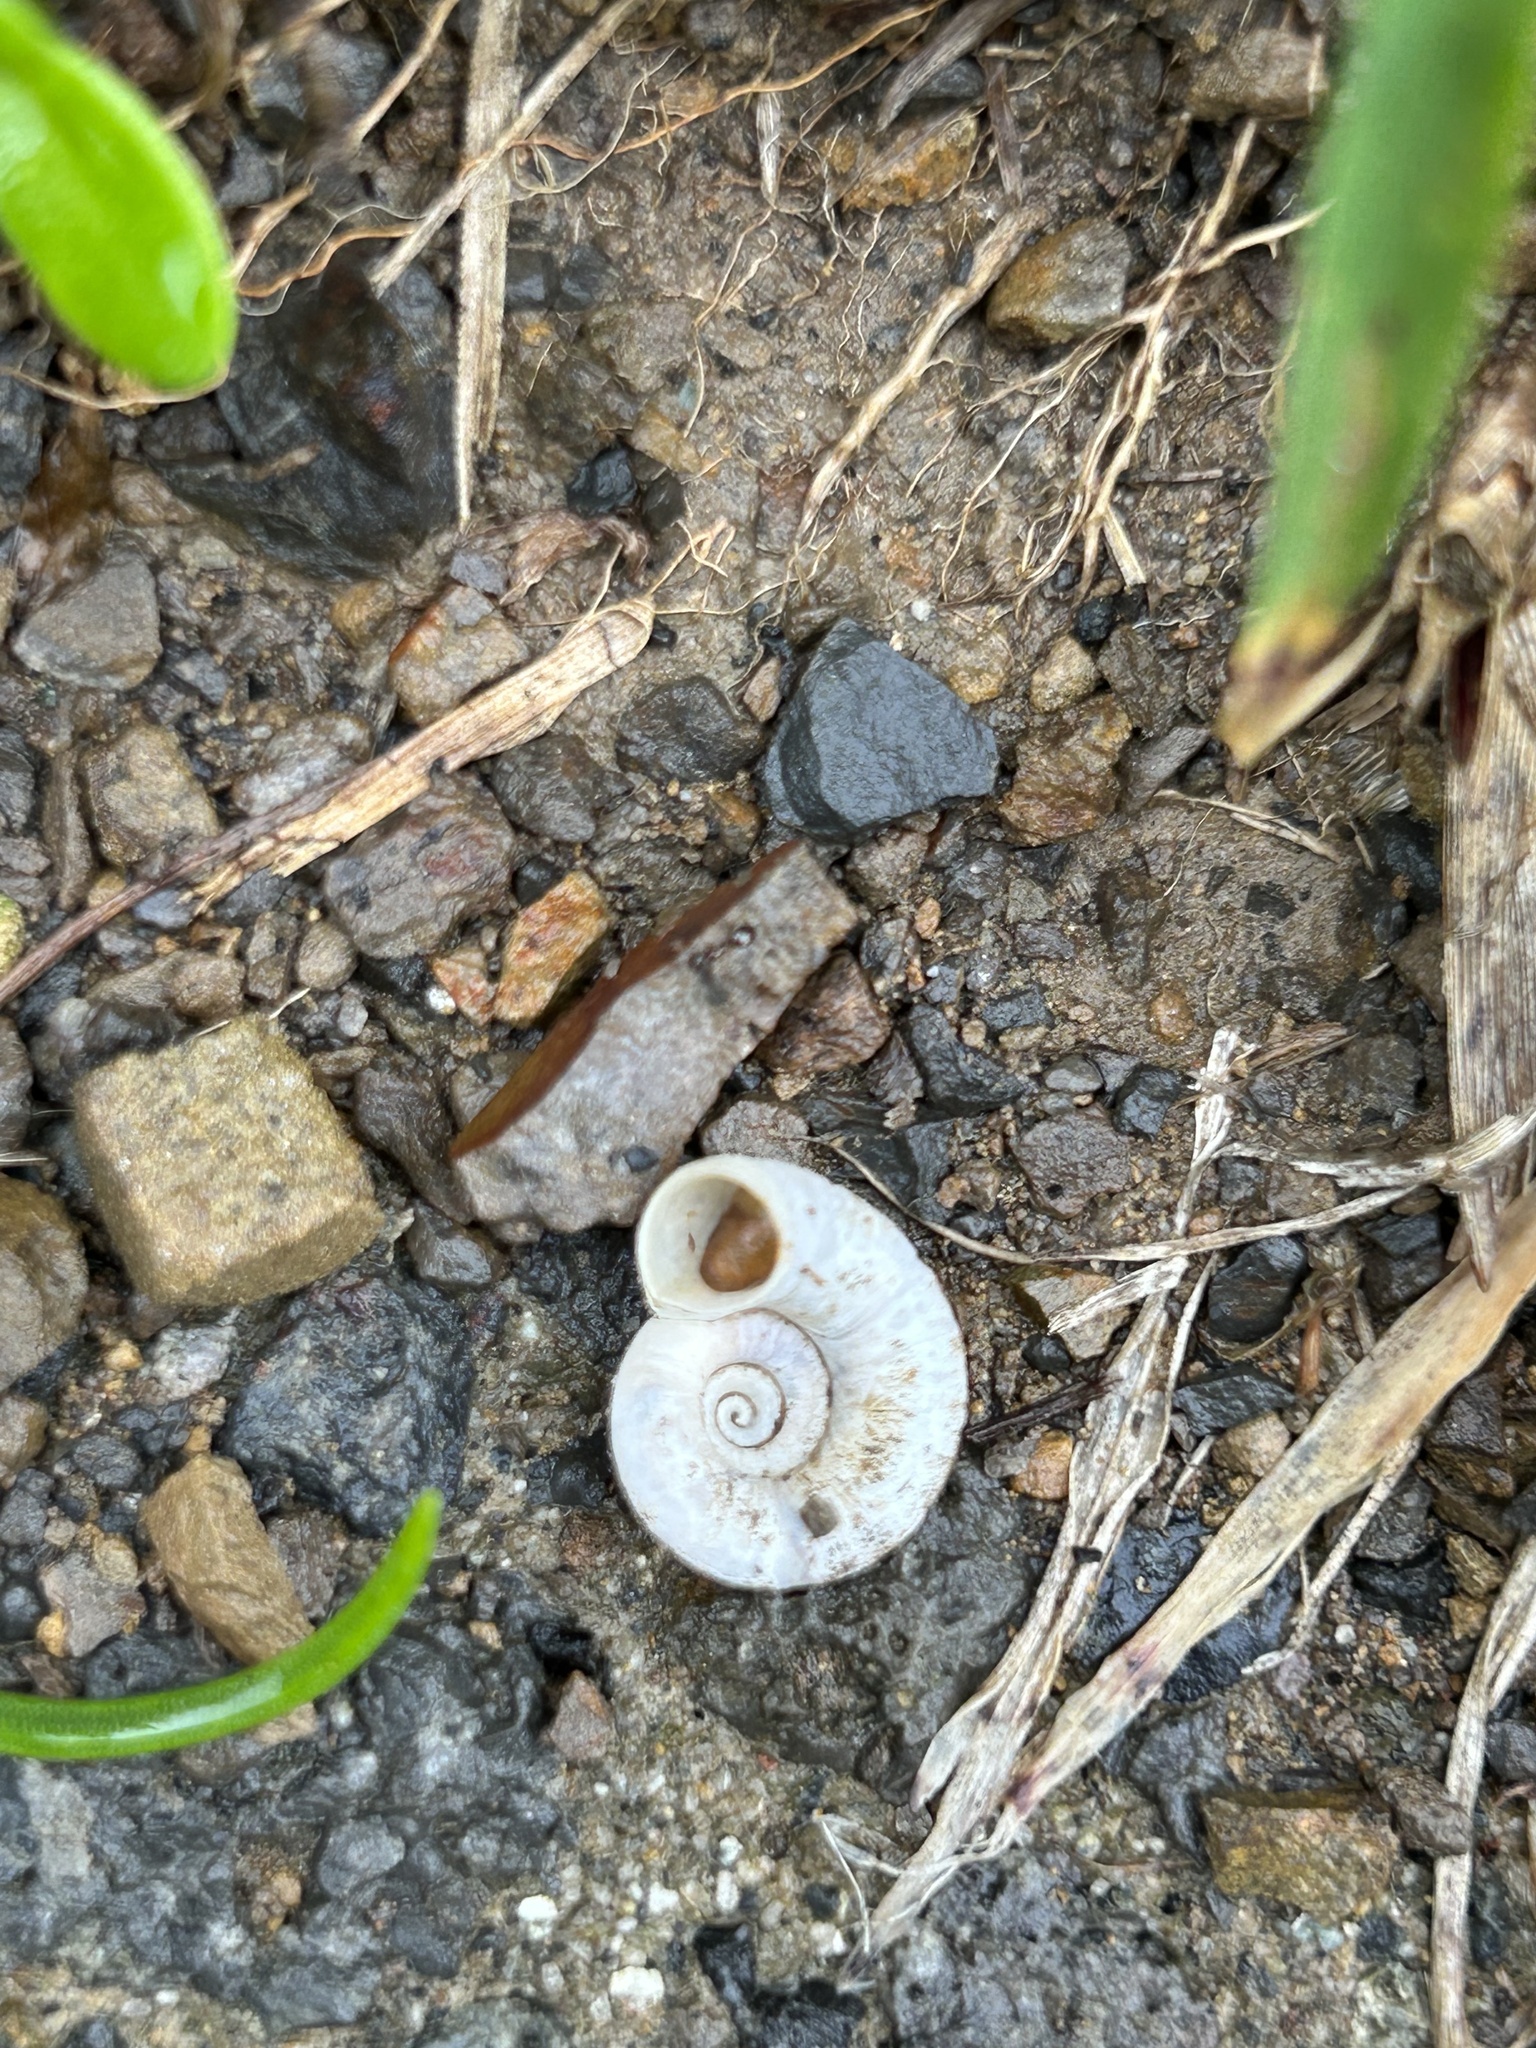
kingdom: Animalia
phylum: Mollusca
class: Gastropoda
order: Architaenioglossa
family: Cyclophoridae
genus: Spirostoma
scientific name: Spirostoma japonicum
